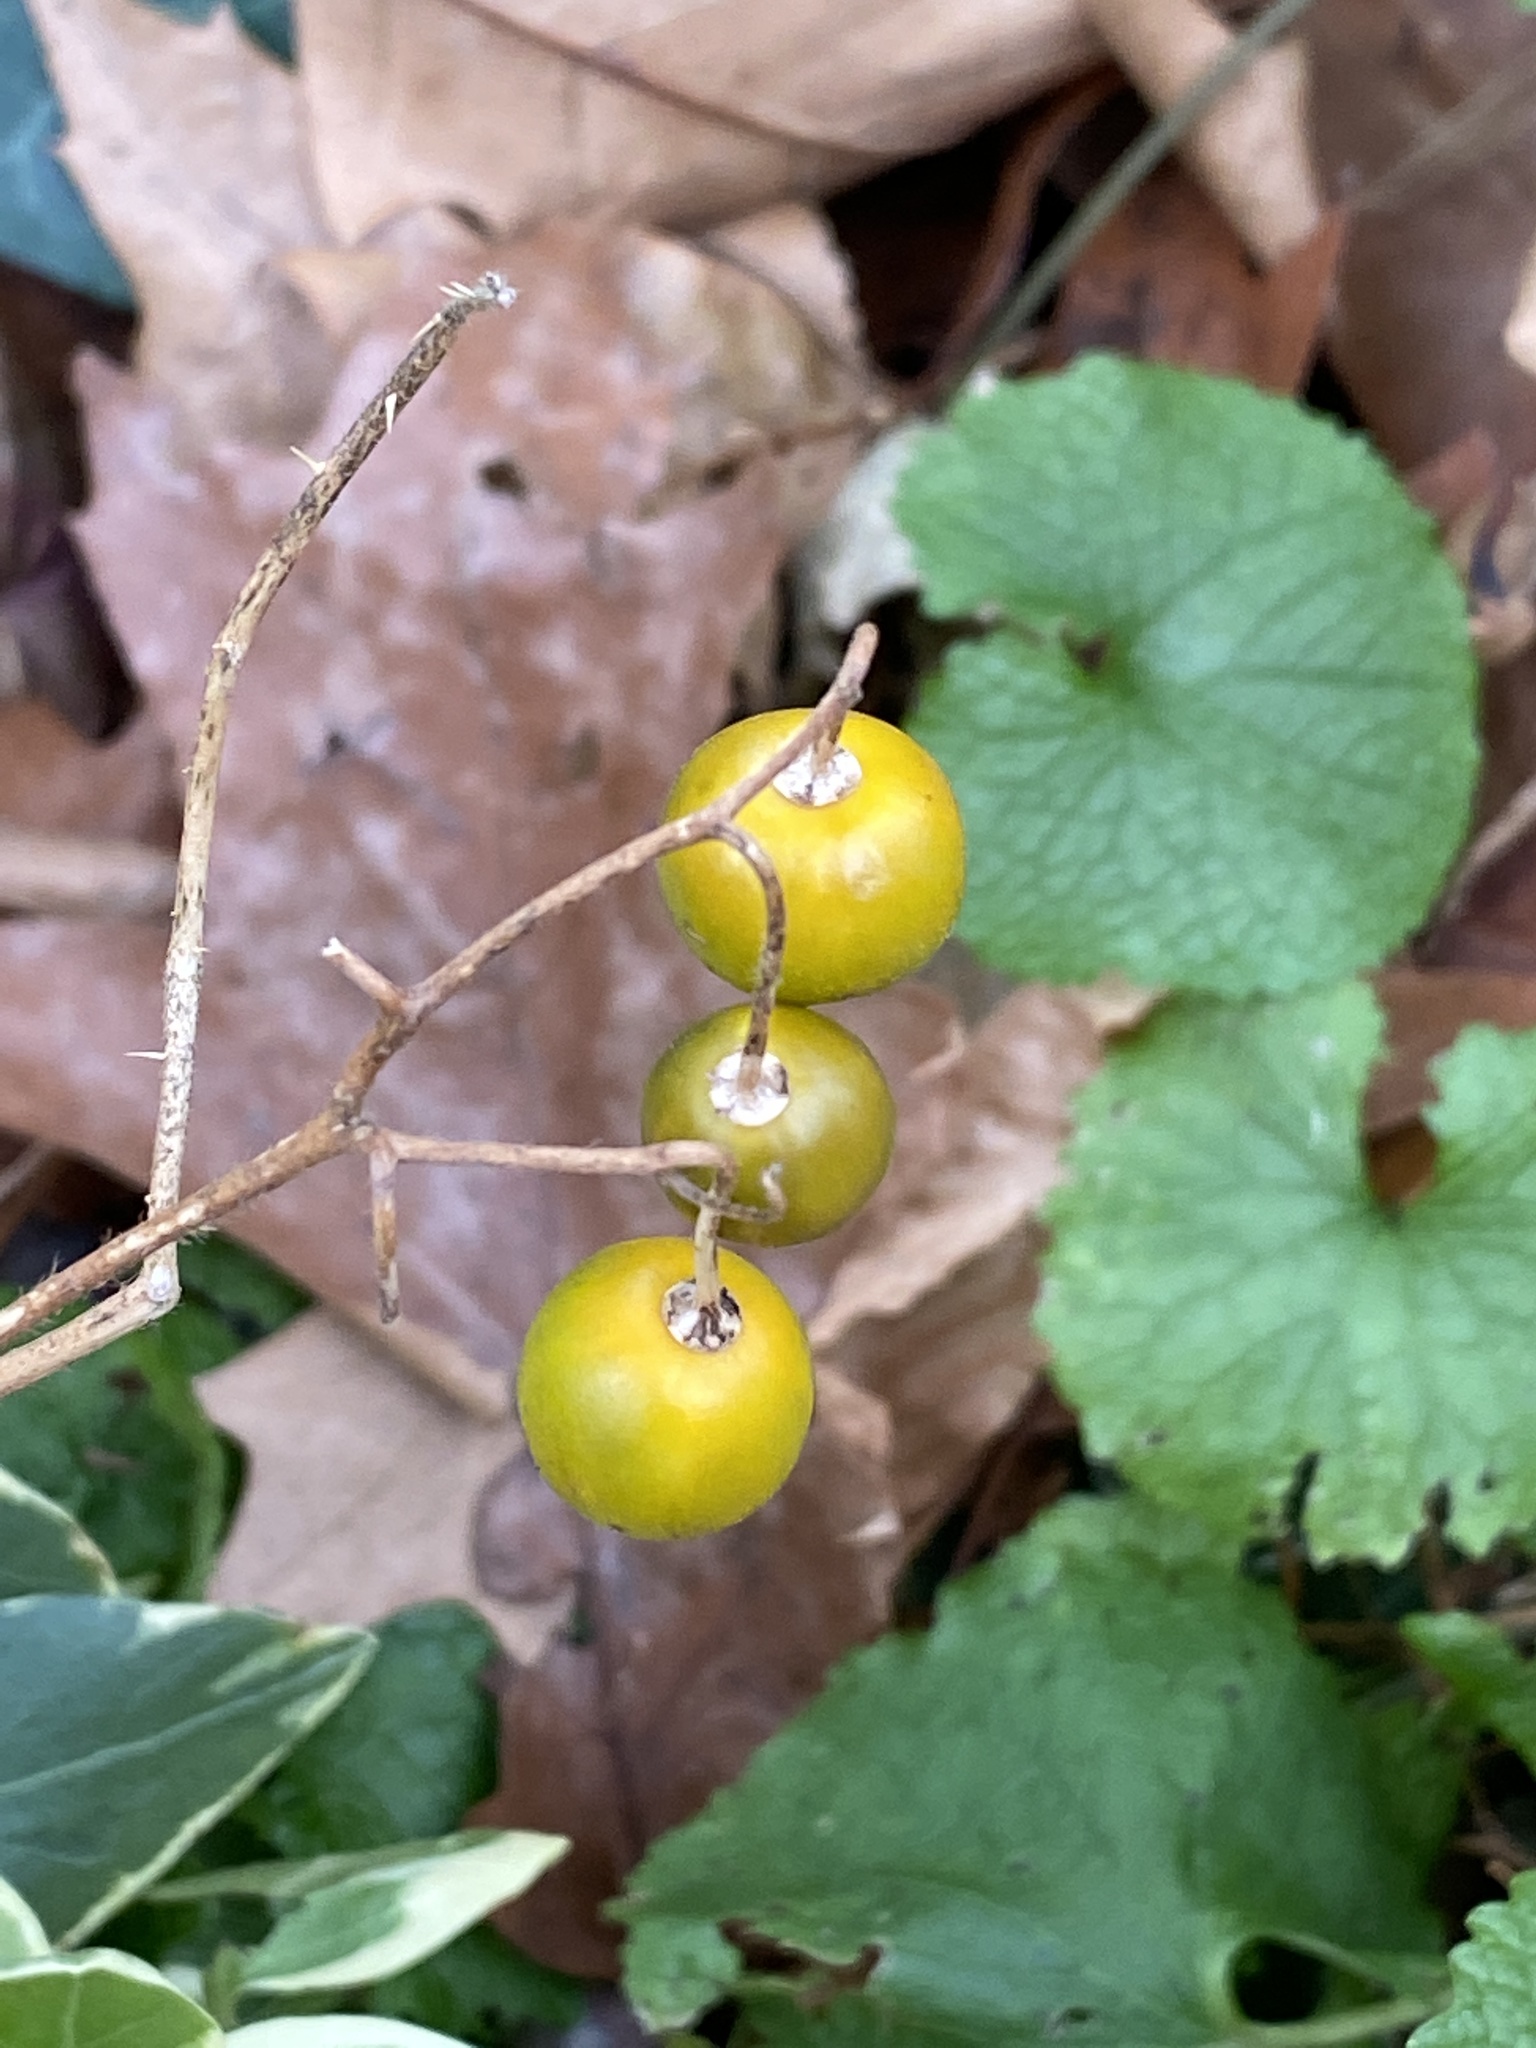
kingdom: Plantae
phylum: Tracheophyta
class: Magnoliopsida
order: Solanales
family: Solanaceae
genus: Solanum
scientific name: Solanum carolinense
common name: Horse-nettle
